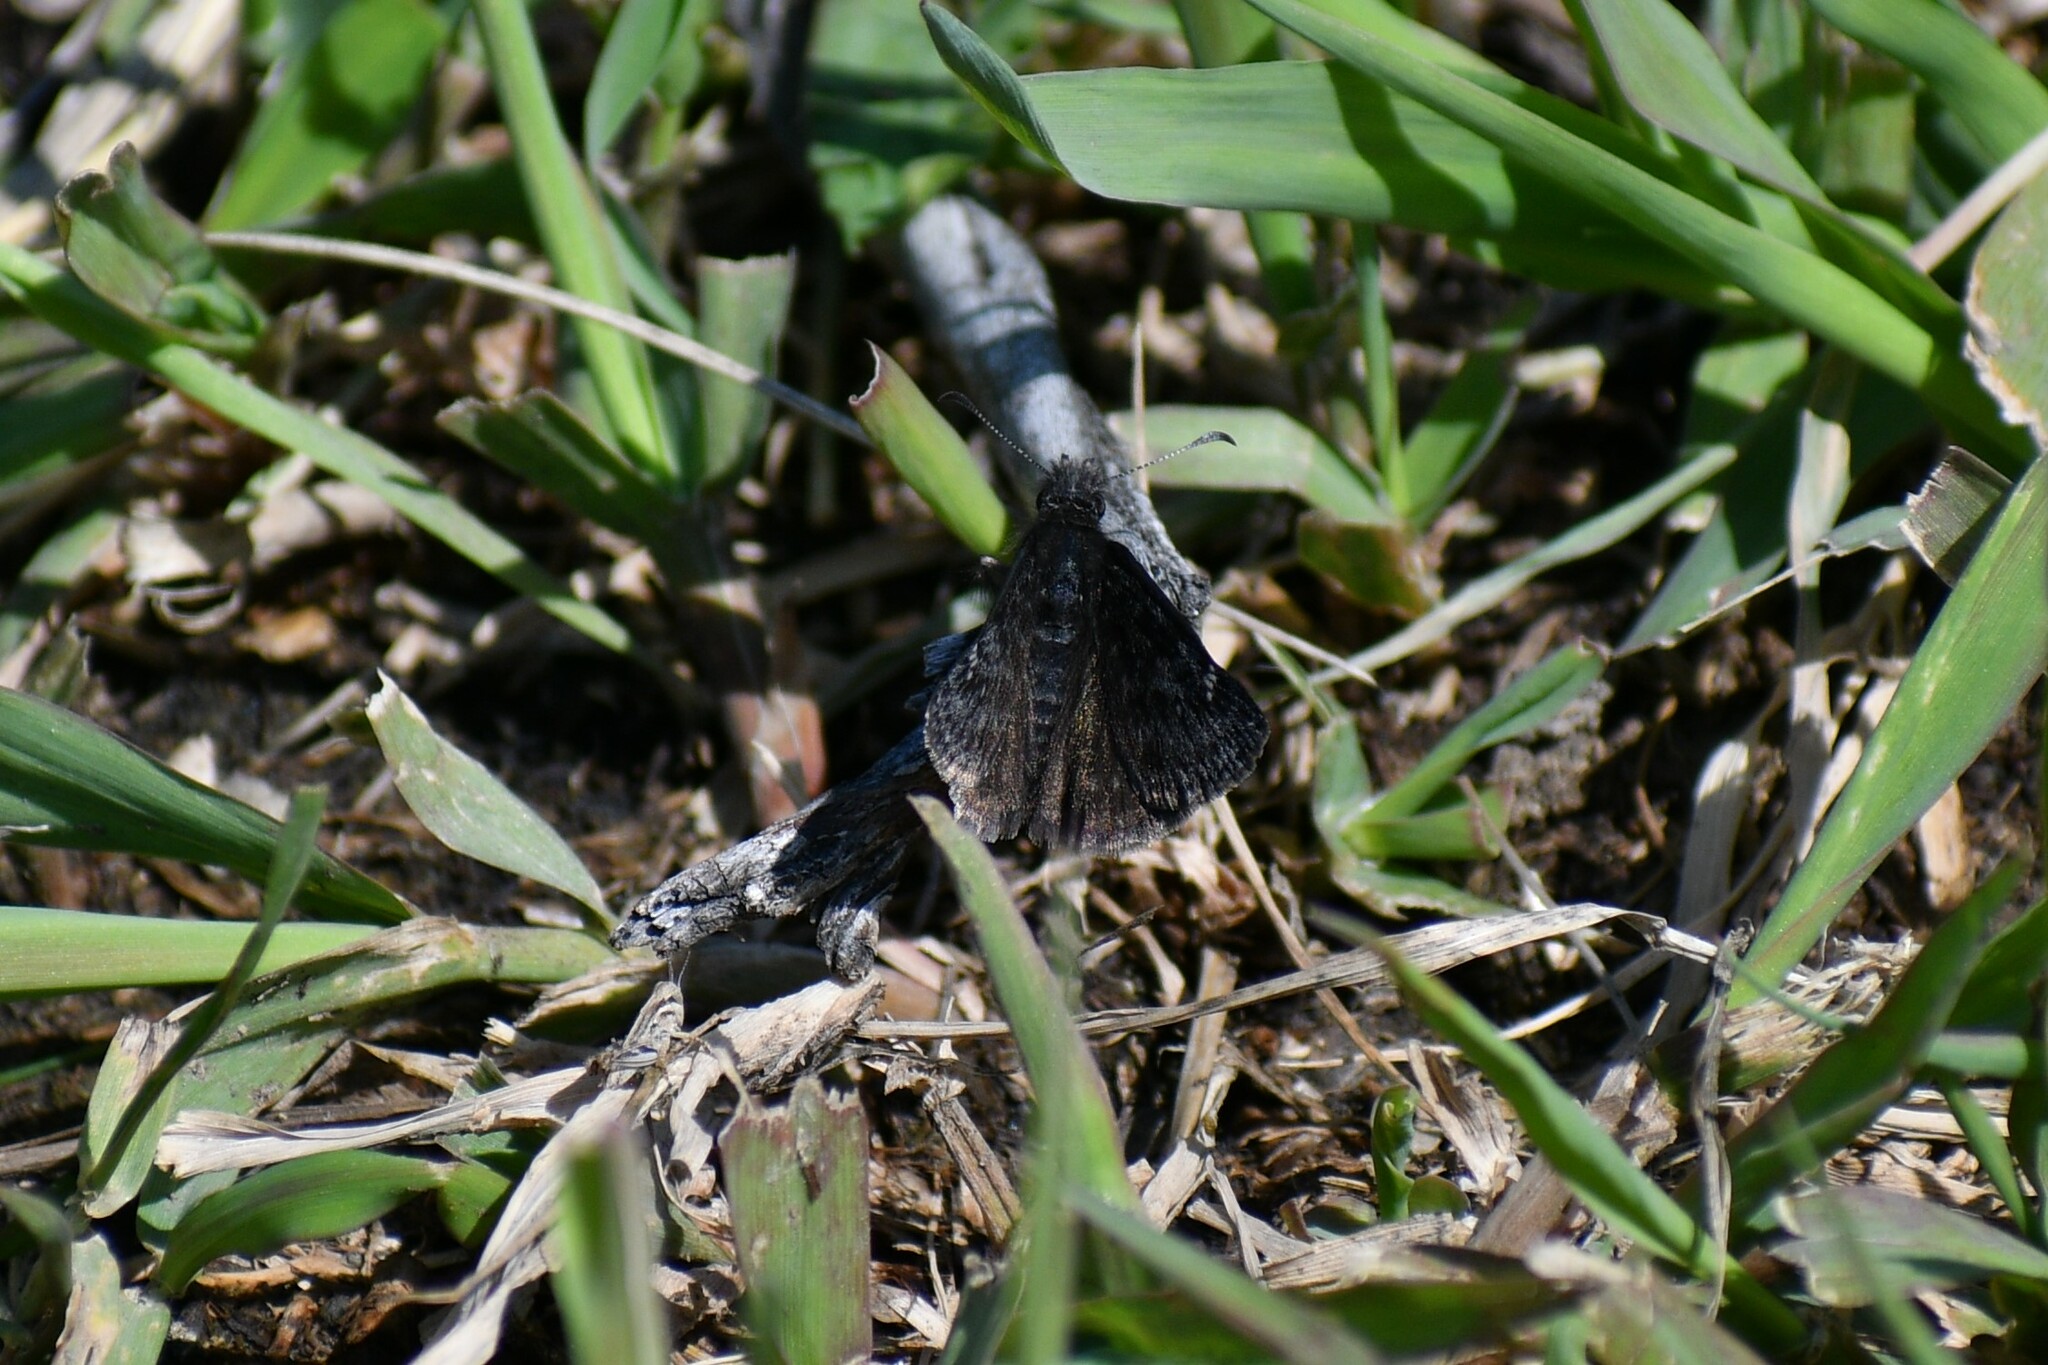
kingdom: Animalia
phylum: Arthropoda
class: Insecta
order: Lepidoptera
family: Hesperiidae
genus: Erynnis
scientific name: Erynnis persius
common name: Persius duskywing
